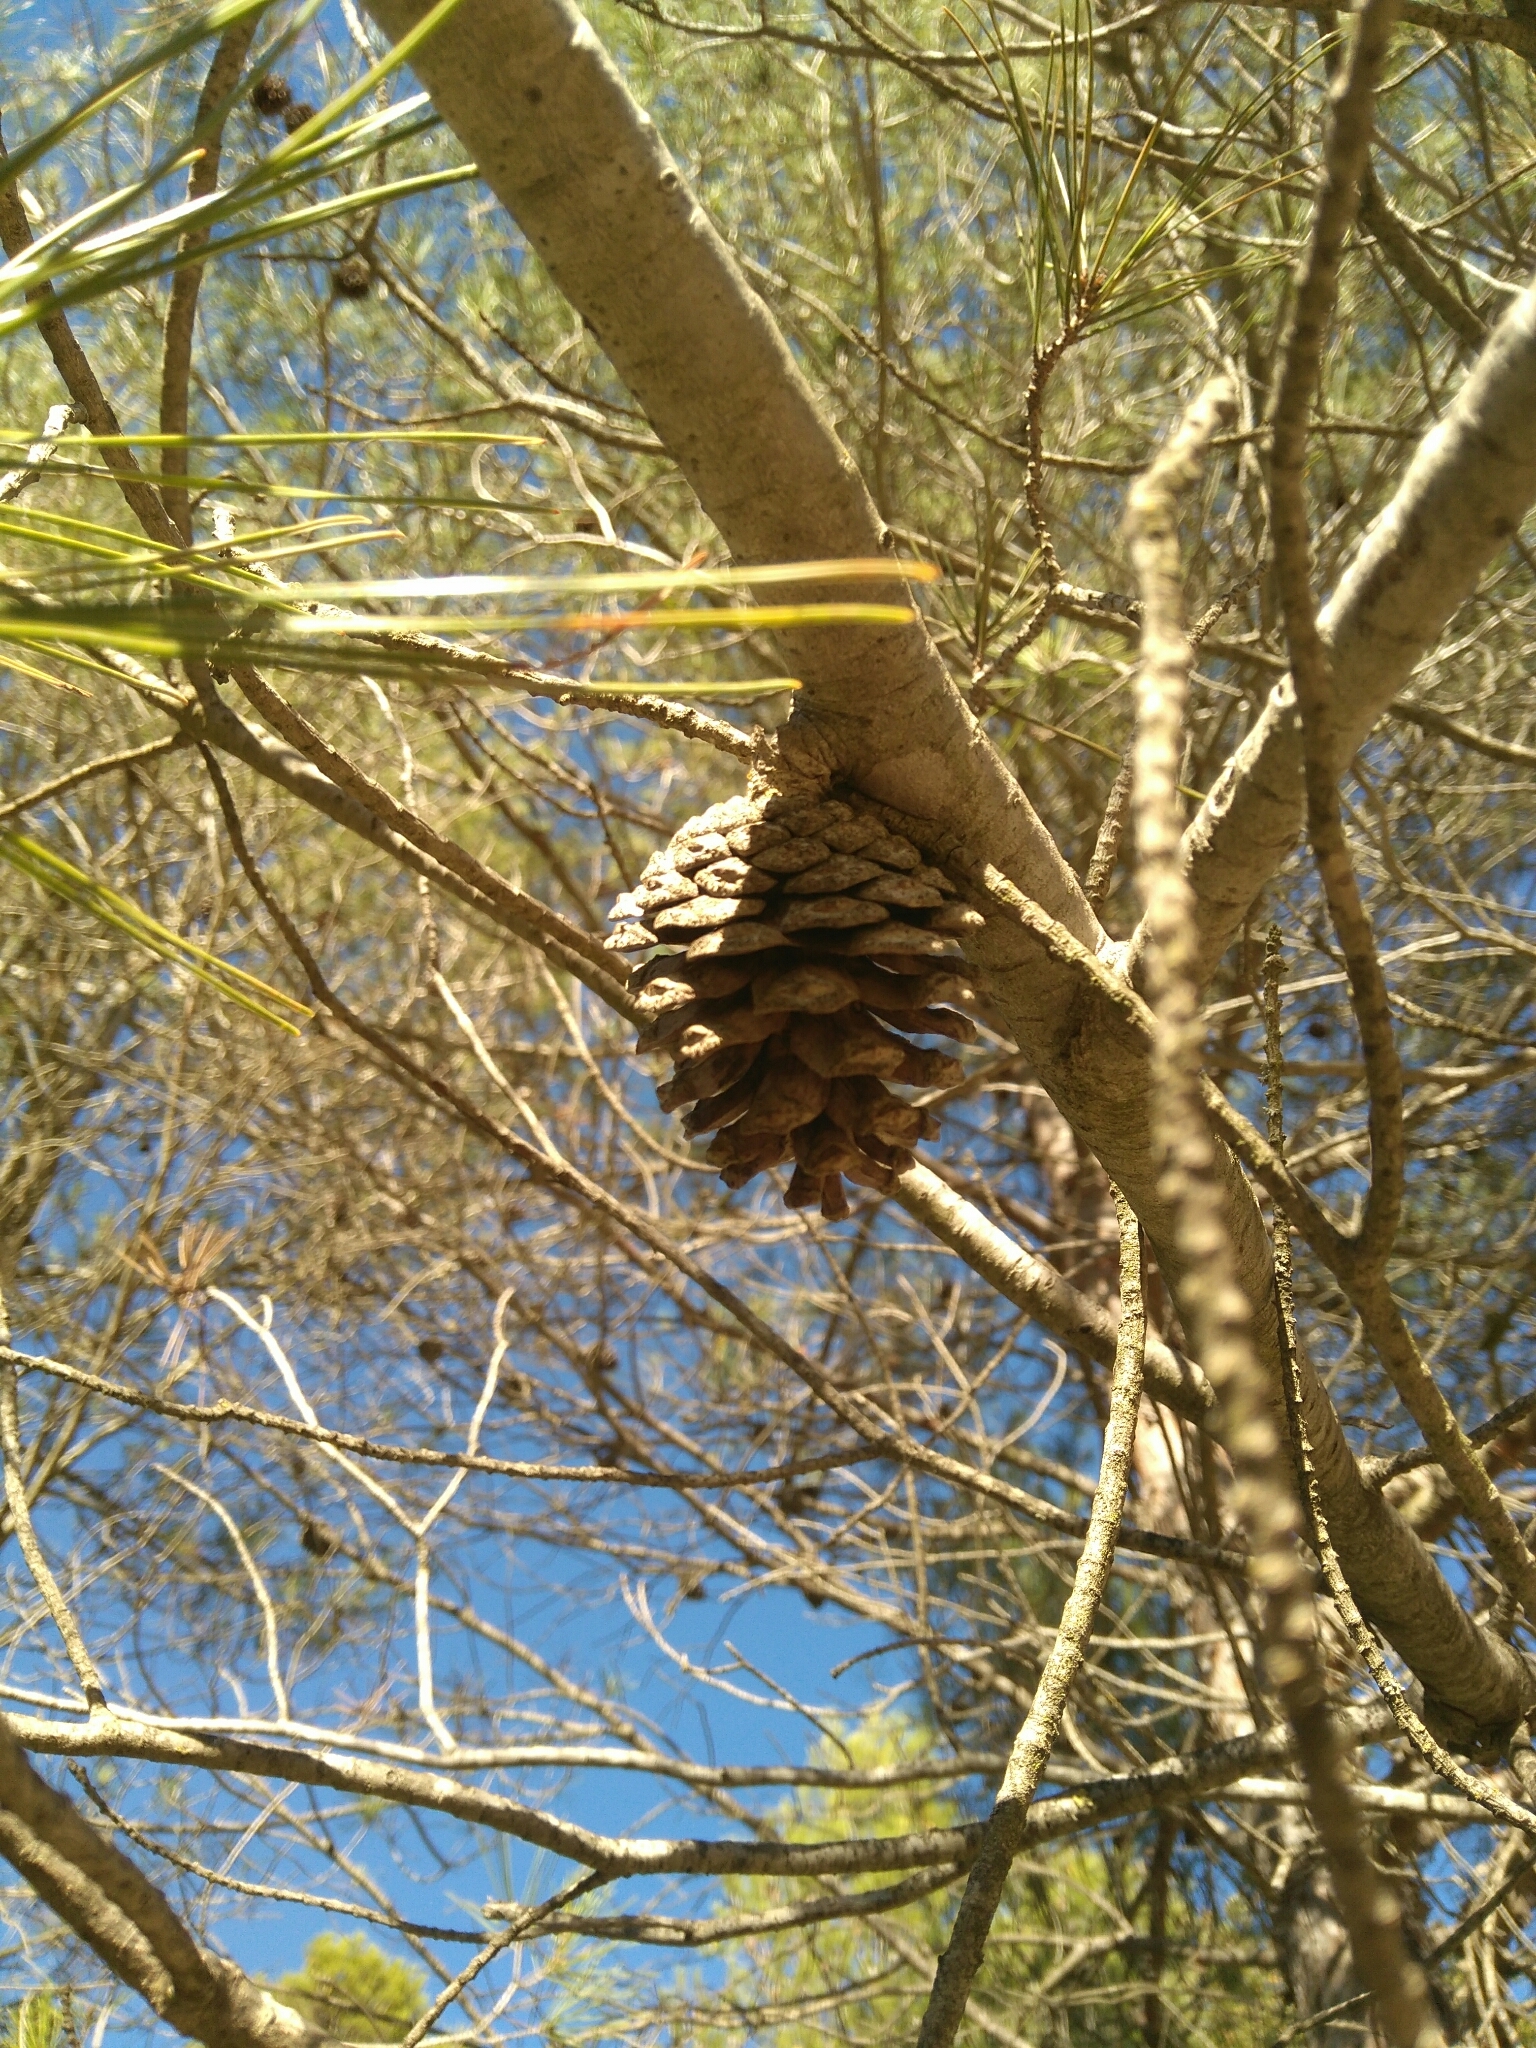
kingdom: Plantae
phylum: Tracheophyta
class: Pinopsida
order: Pinales
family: Pinaceae
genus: Pinus
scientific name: Pinus halepensis
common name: Aleppo pine
